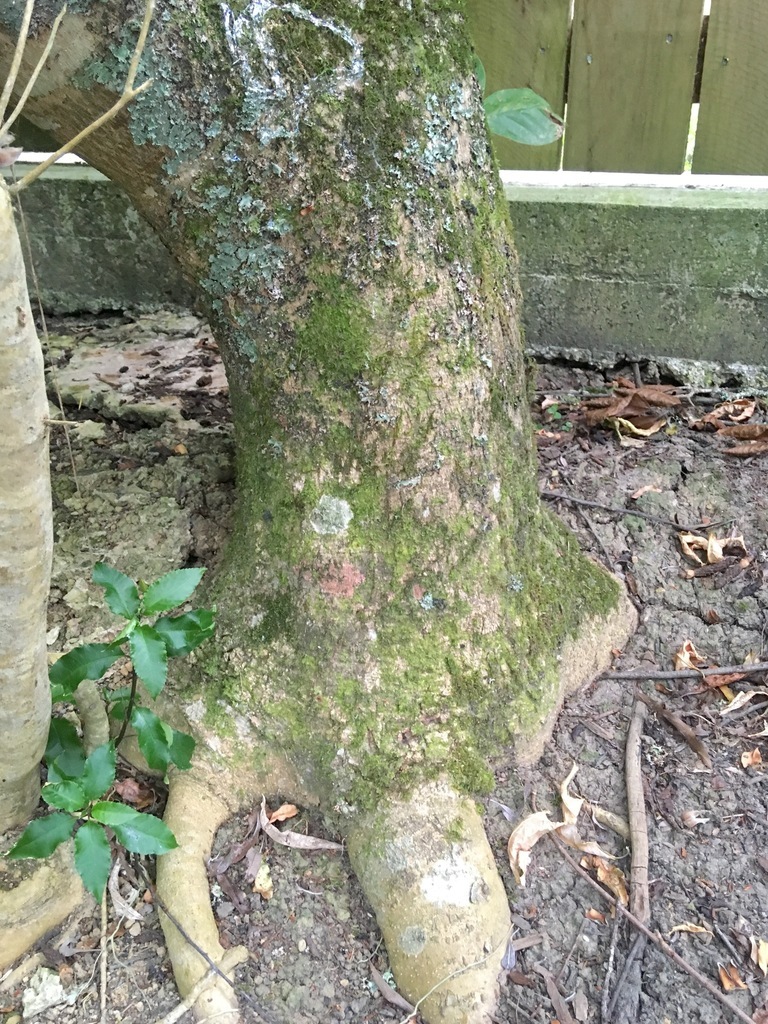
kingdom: Plantae
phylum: Tracheophyta
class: Magnoliopsida
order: Malpighiales
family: Violaceae
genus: Melicytus
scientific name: Melicytus ramiflorus
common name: Mahoe
